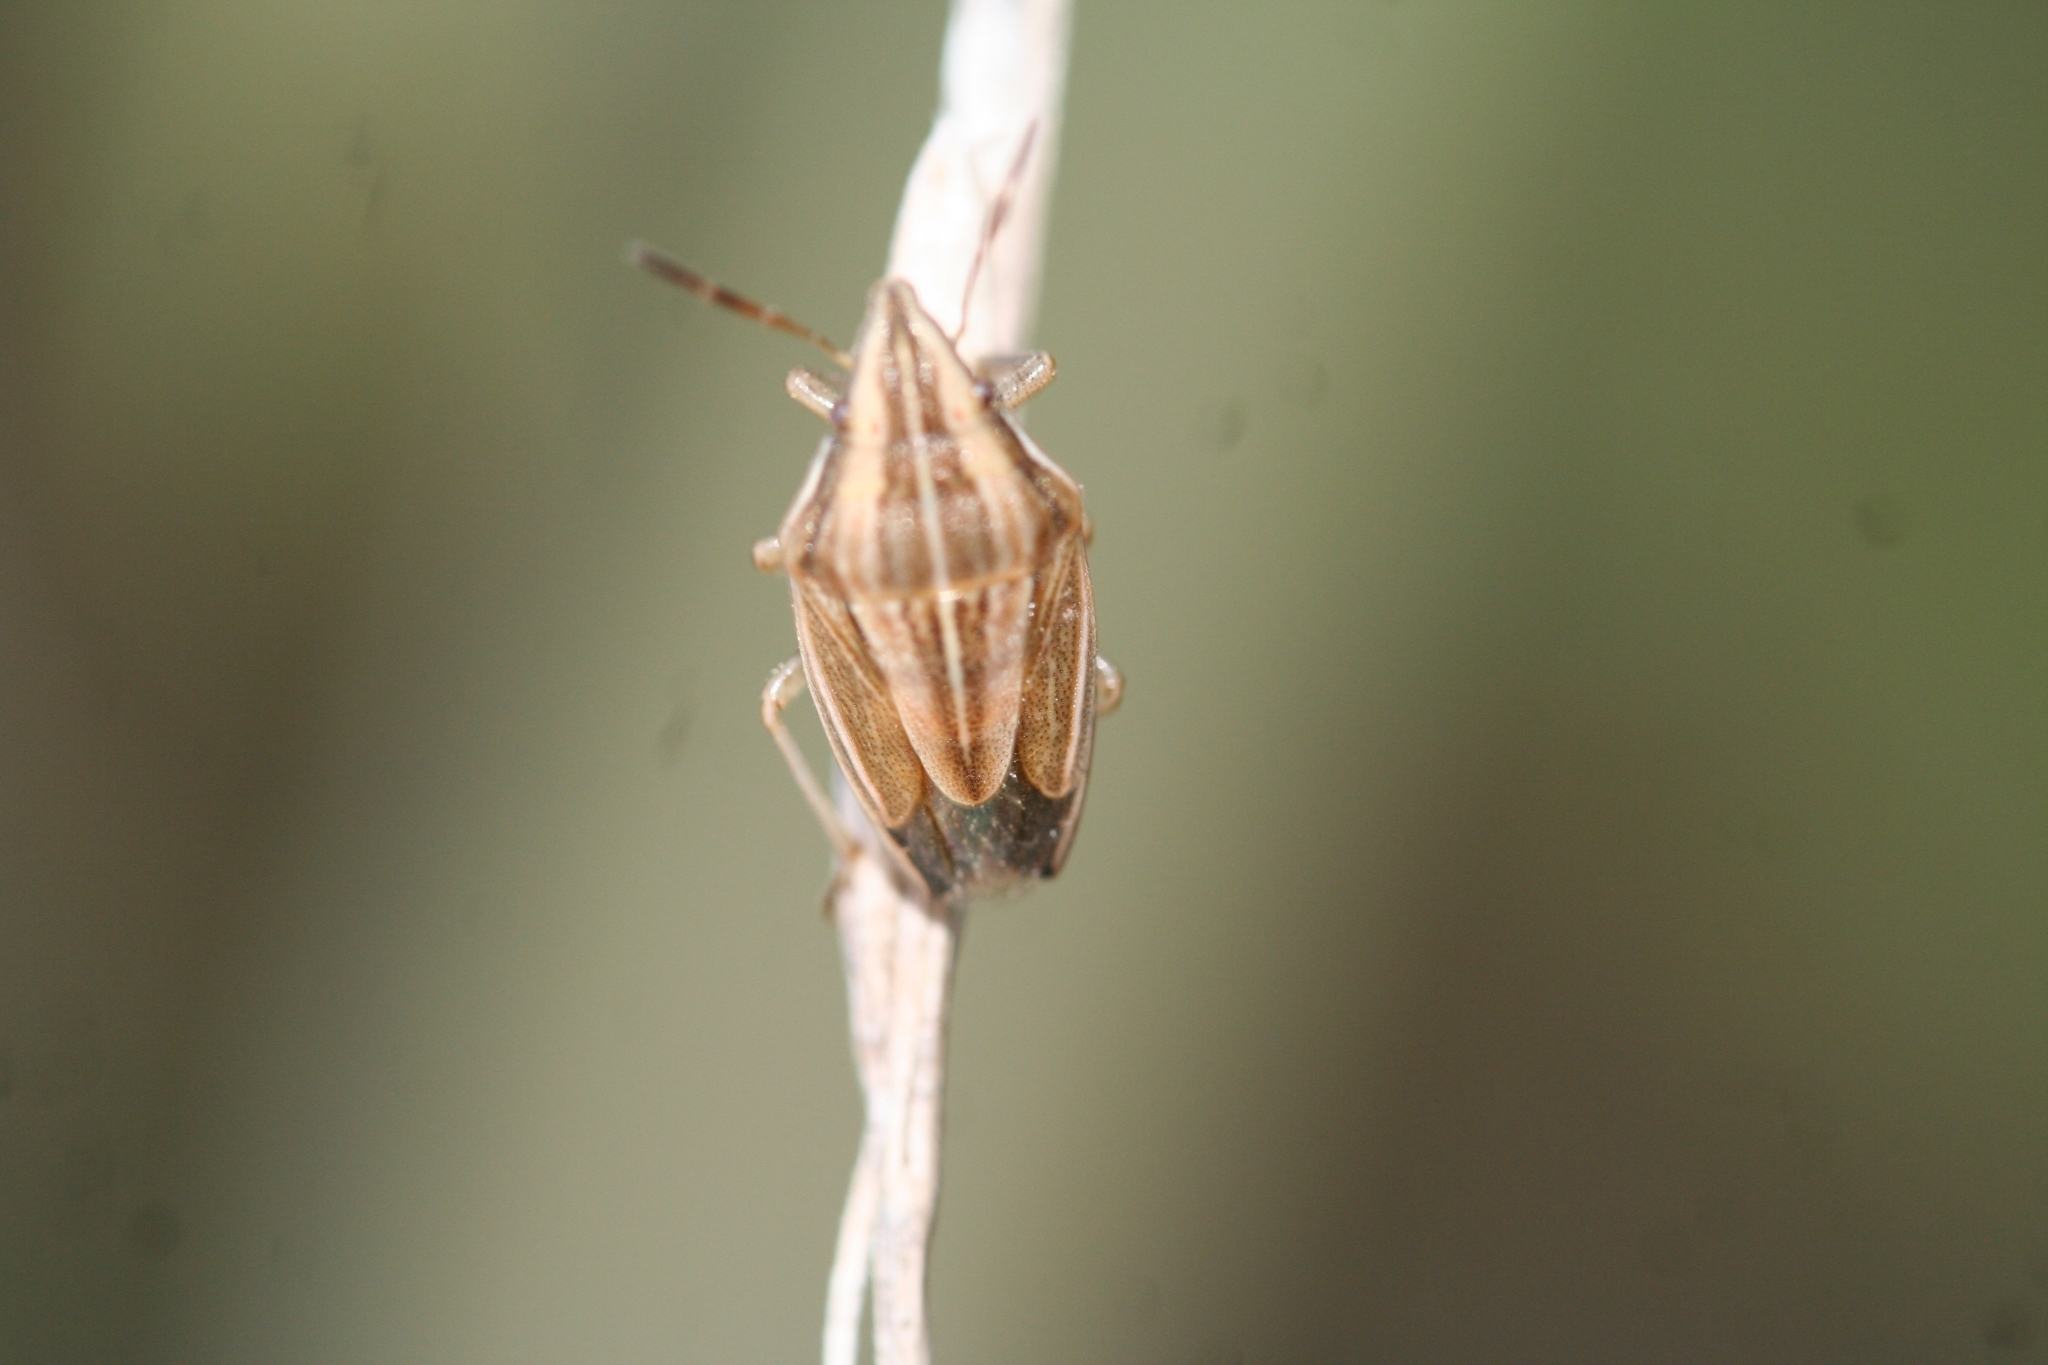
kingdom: Animalia
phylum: Arthropoda
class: Insecta
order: Hemiptera
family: Pentatomidae
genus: Aelia
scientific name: Aelia acuminata
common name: Bishop's mitre
